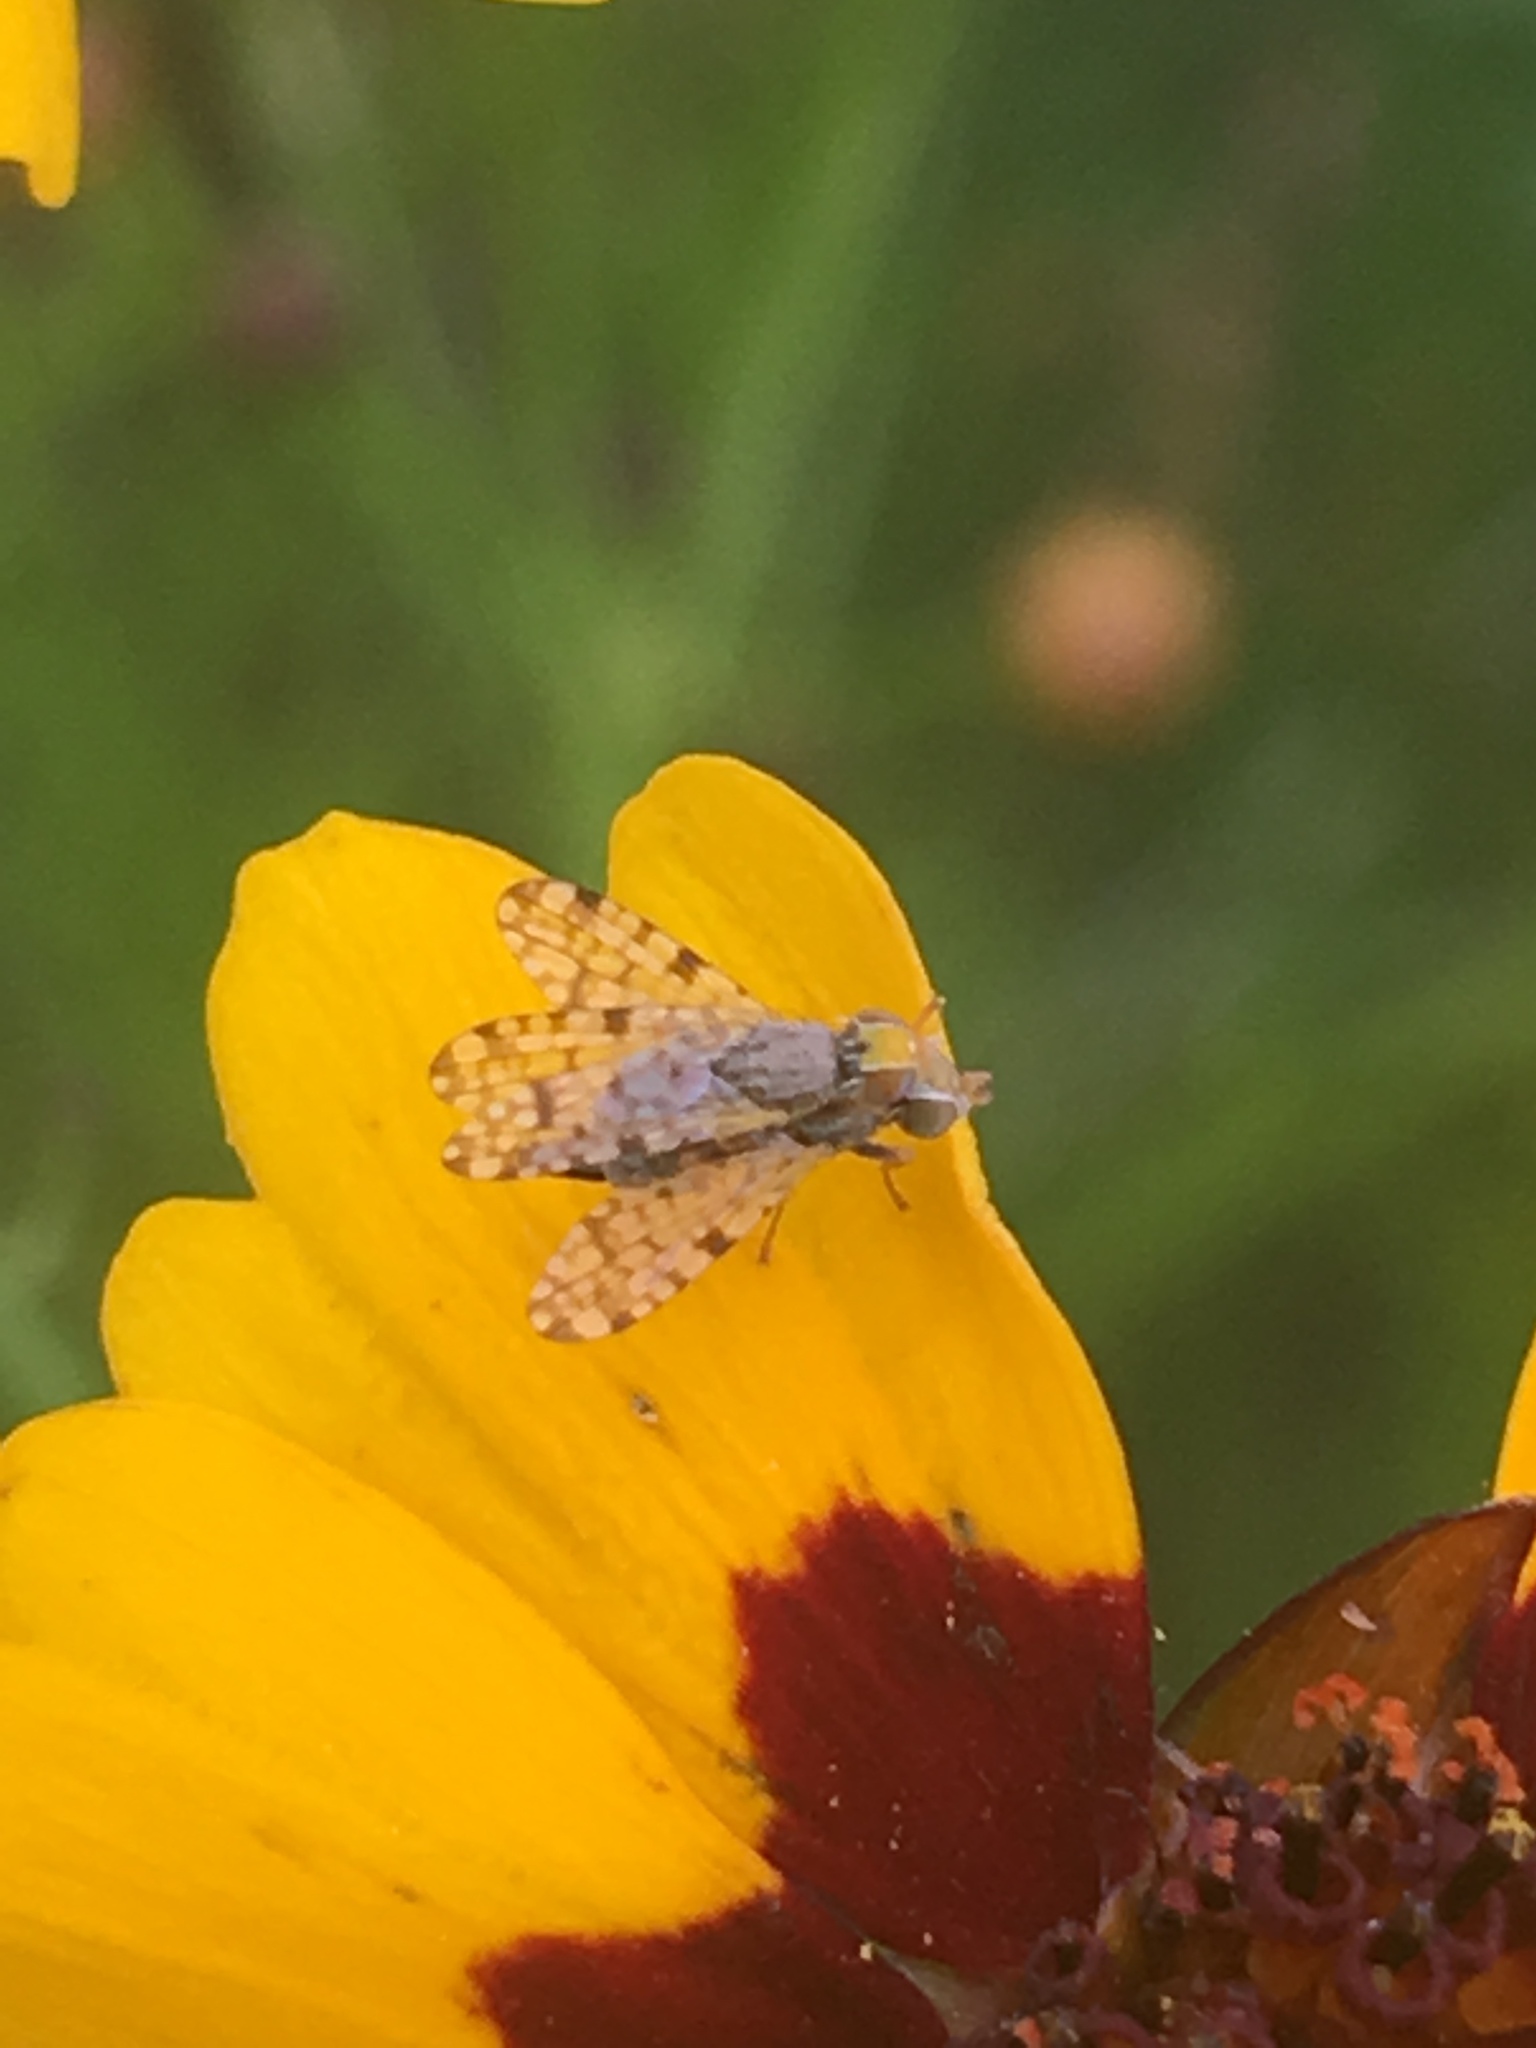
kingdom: Animalia
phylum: Arthropoda
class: Insecta
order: Diptera
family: Tephritidae
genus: Dioxyna
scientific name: Dioxyna picciola
